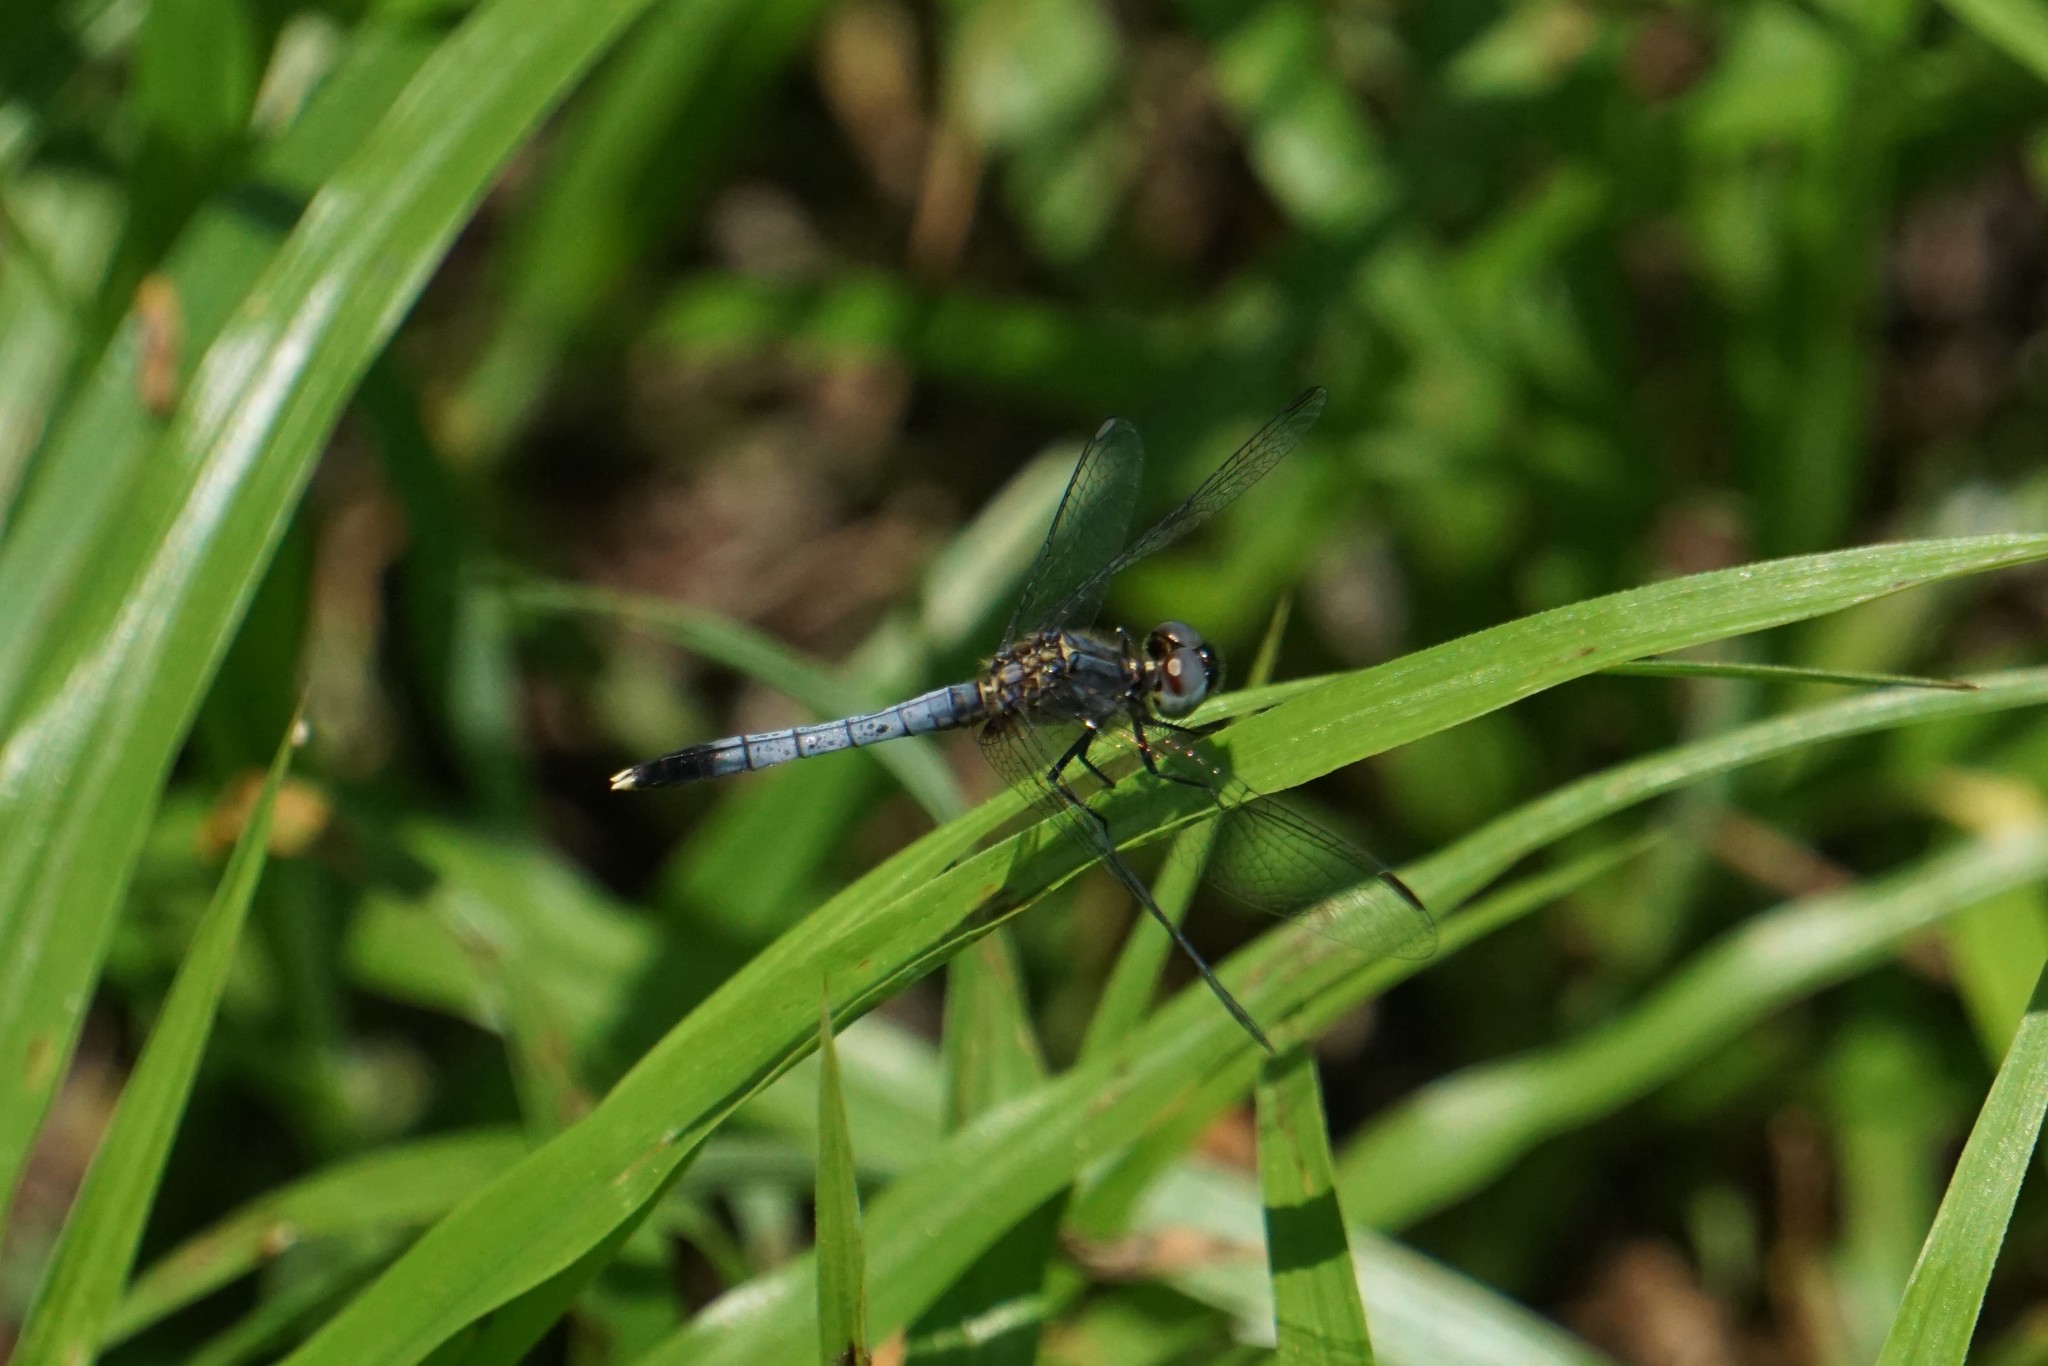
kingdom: Animalia
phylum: Arthropoda
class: Insecta
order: Odonata
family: Libellulidae
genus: Erythrodiplax
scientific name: Erythrodiplax minuscula
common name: Little blue dragonlet
